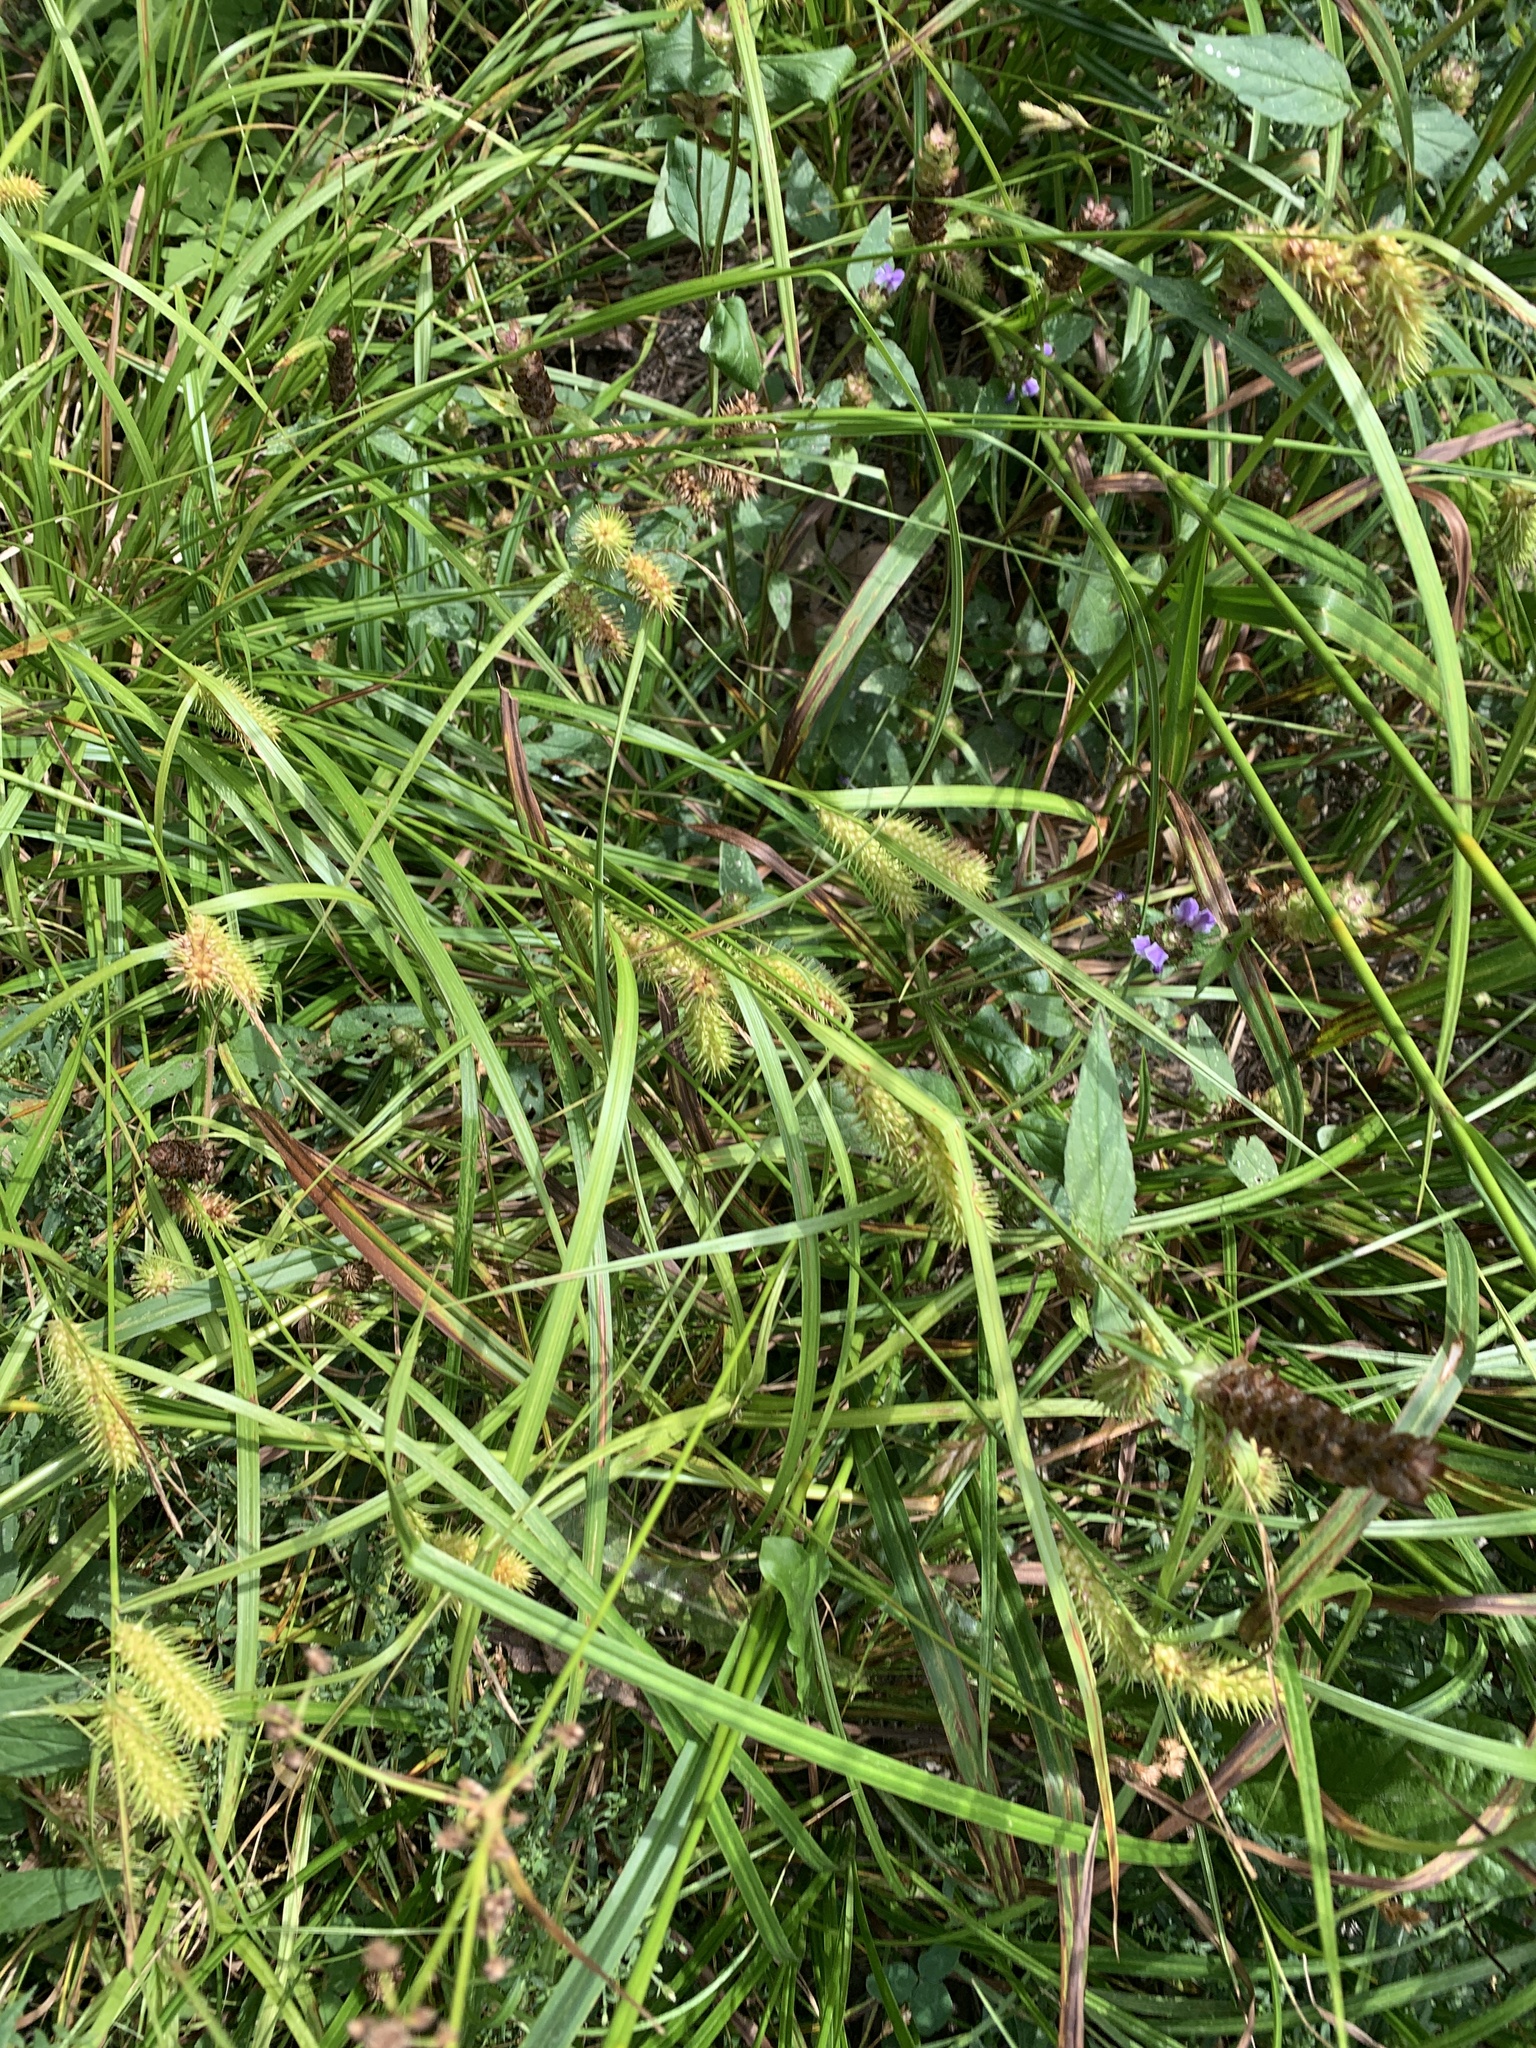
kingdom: Plantae
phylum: Tracheophyta
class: Liliopsida
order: Poales
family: Cyperaceae
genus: Carex
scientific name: Carex lurida
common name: Sallow sedge
